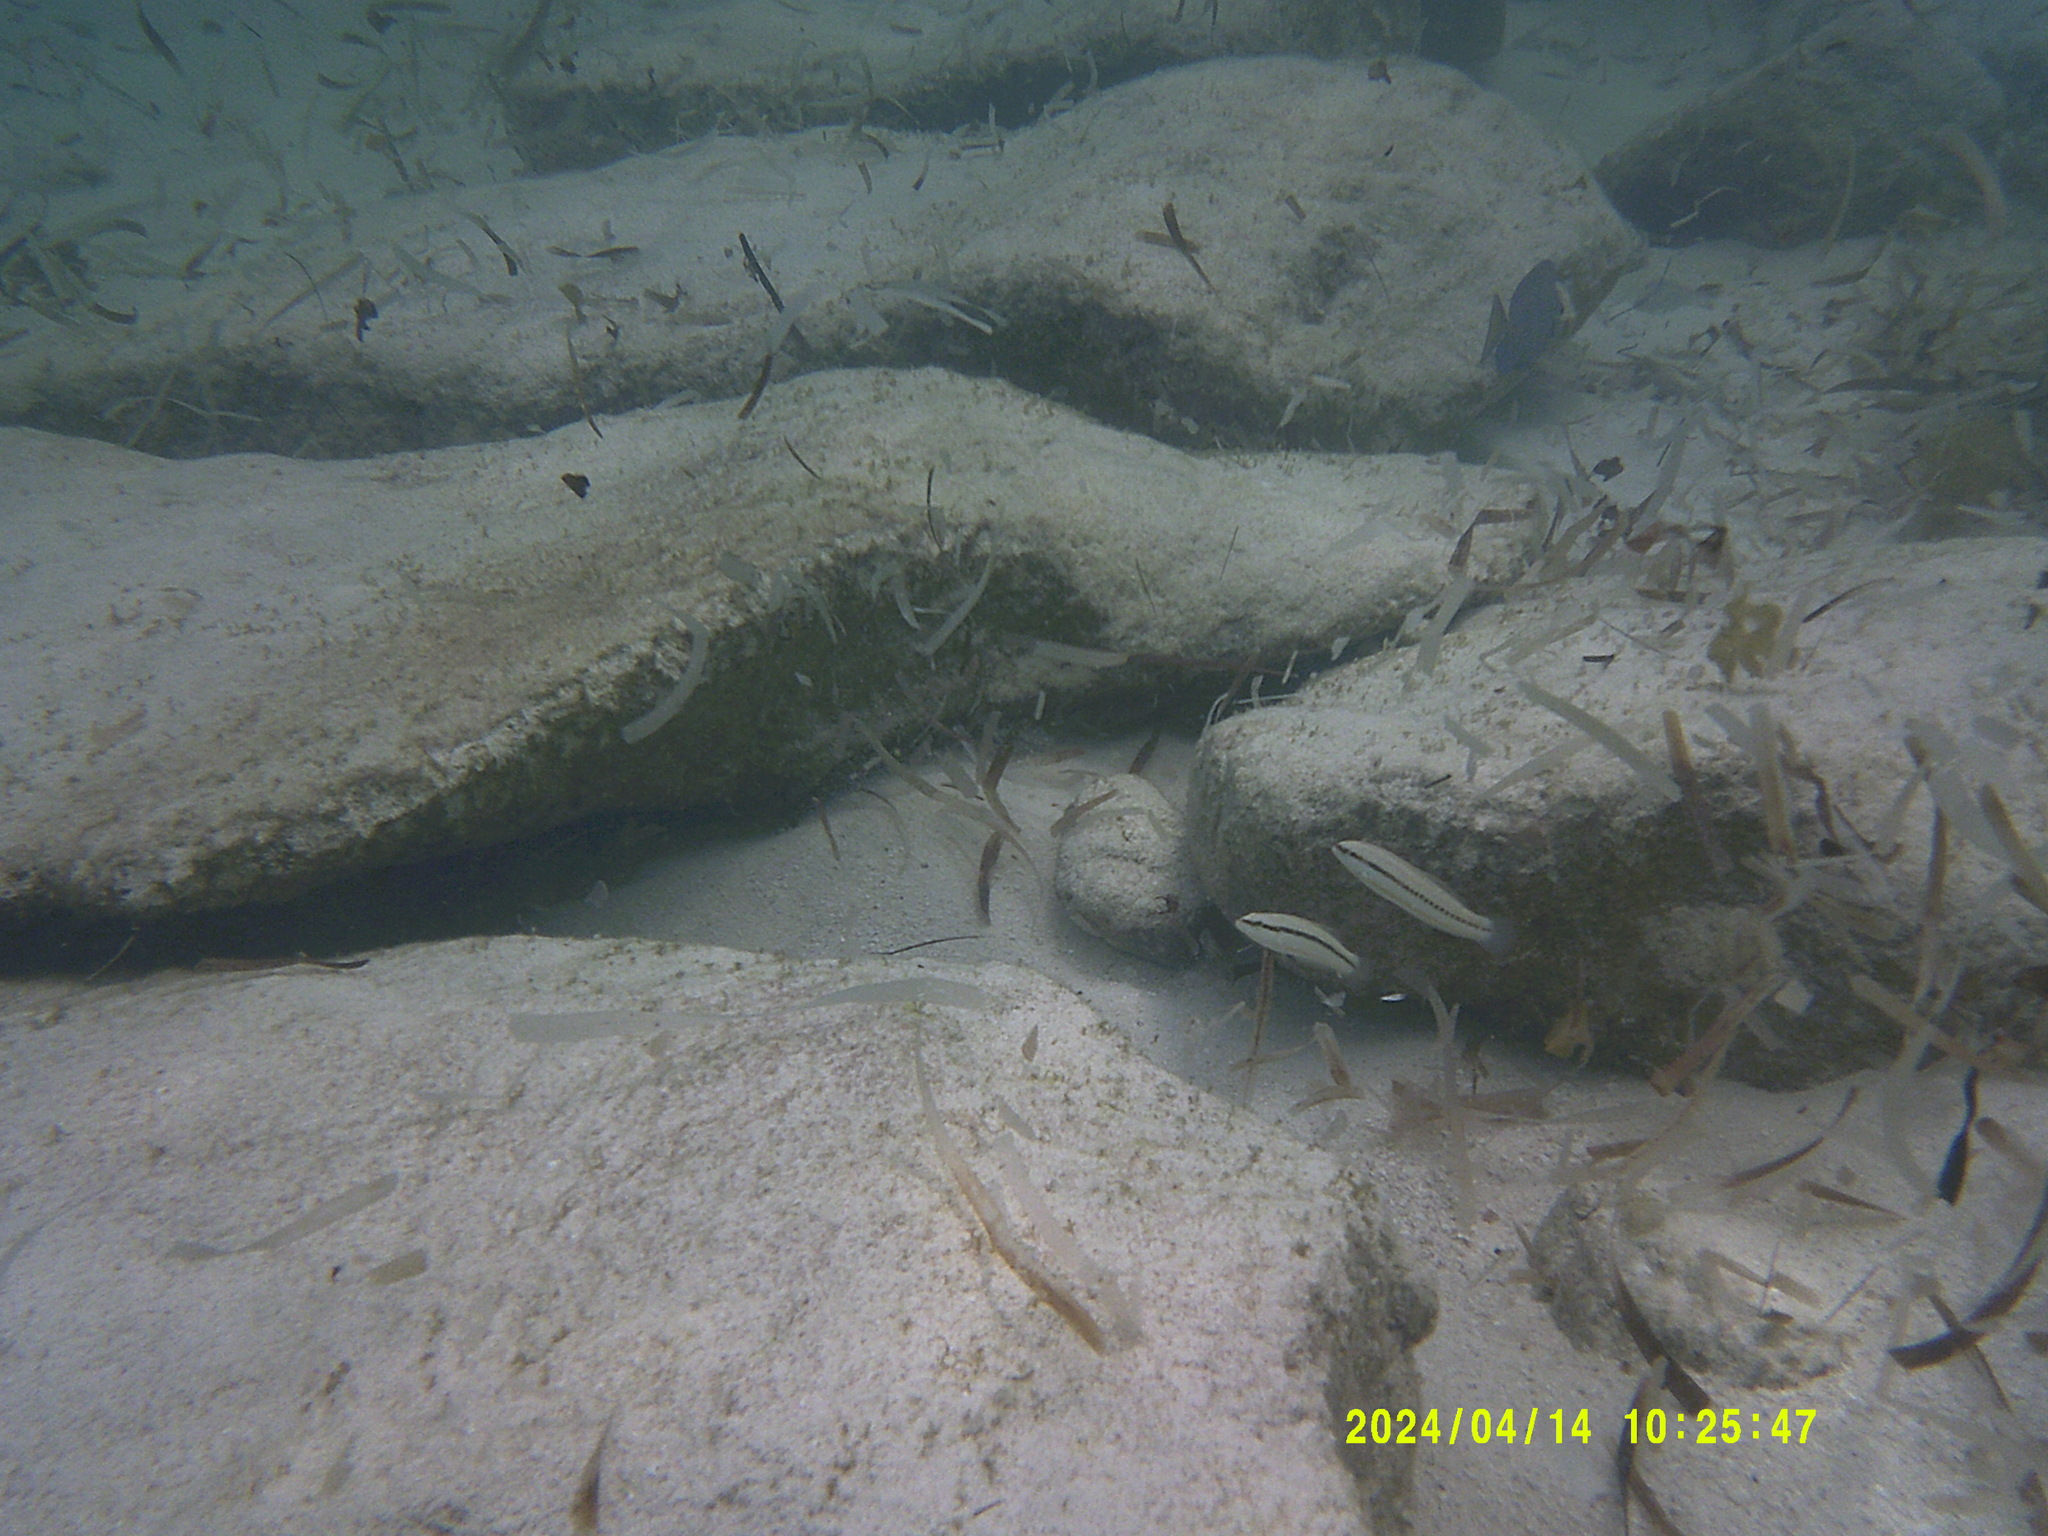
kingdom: Animalia
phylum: Chordata
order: Perciformes
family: Labridae
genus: Halichoeres
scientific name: Halichoeres bivittatus
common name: Slippery dick
